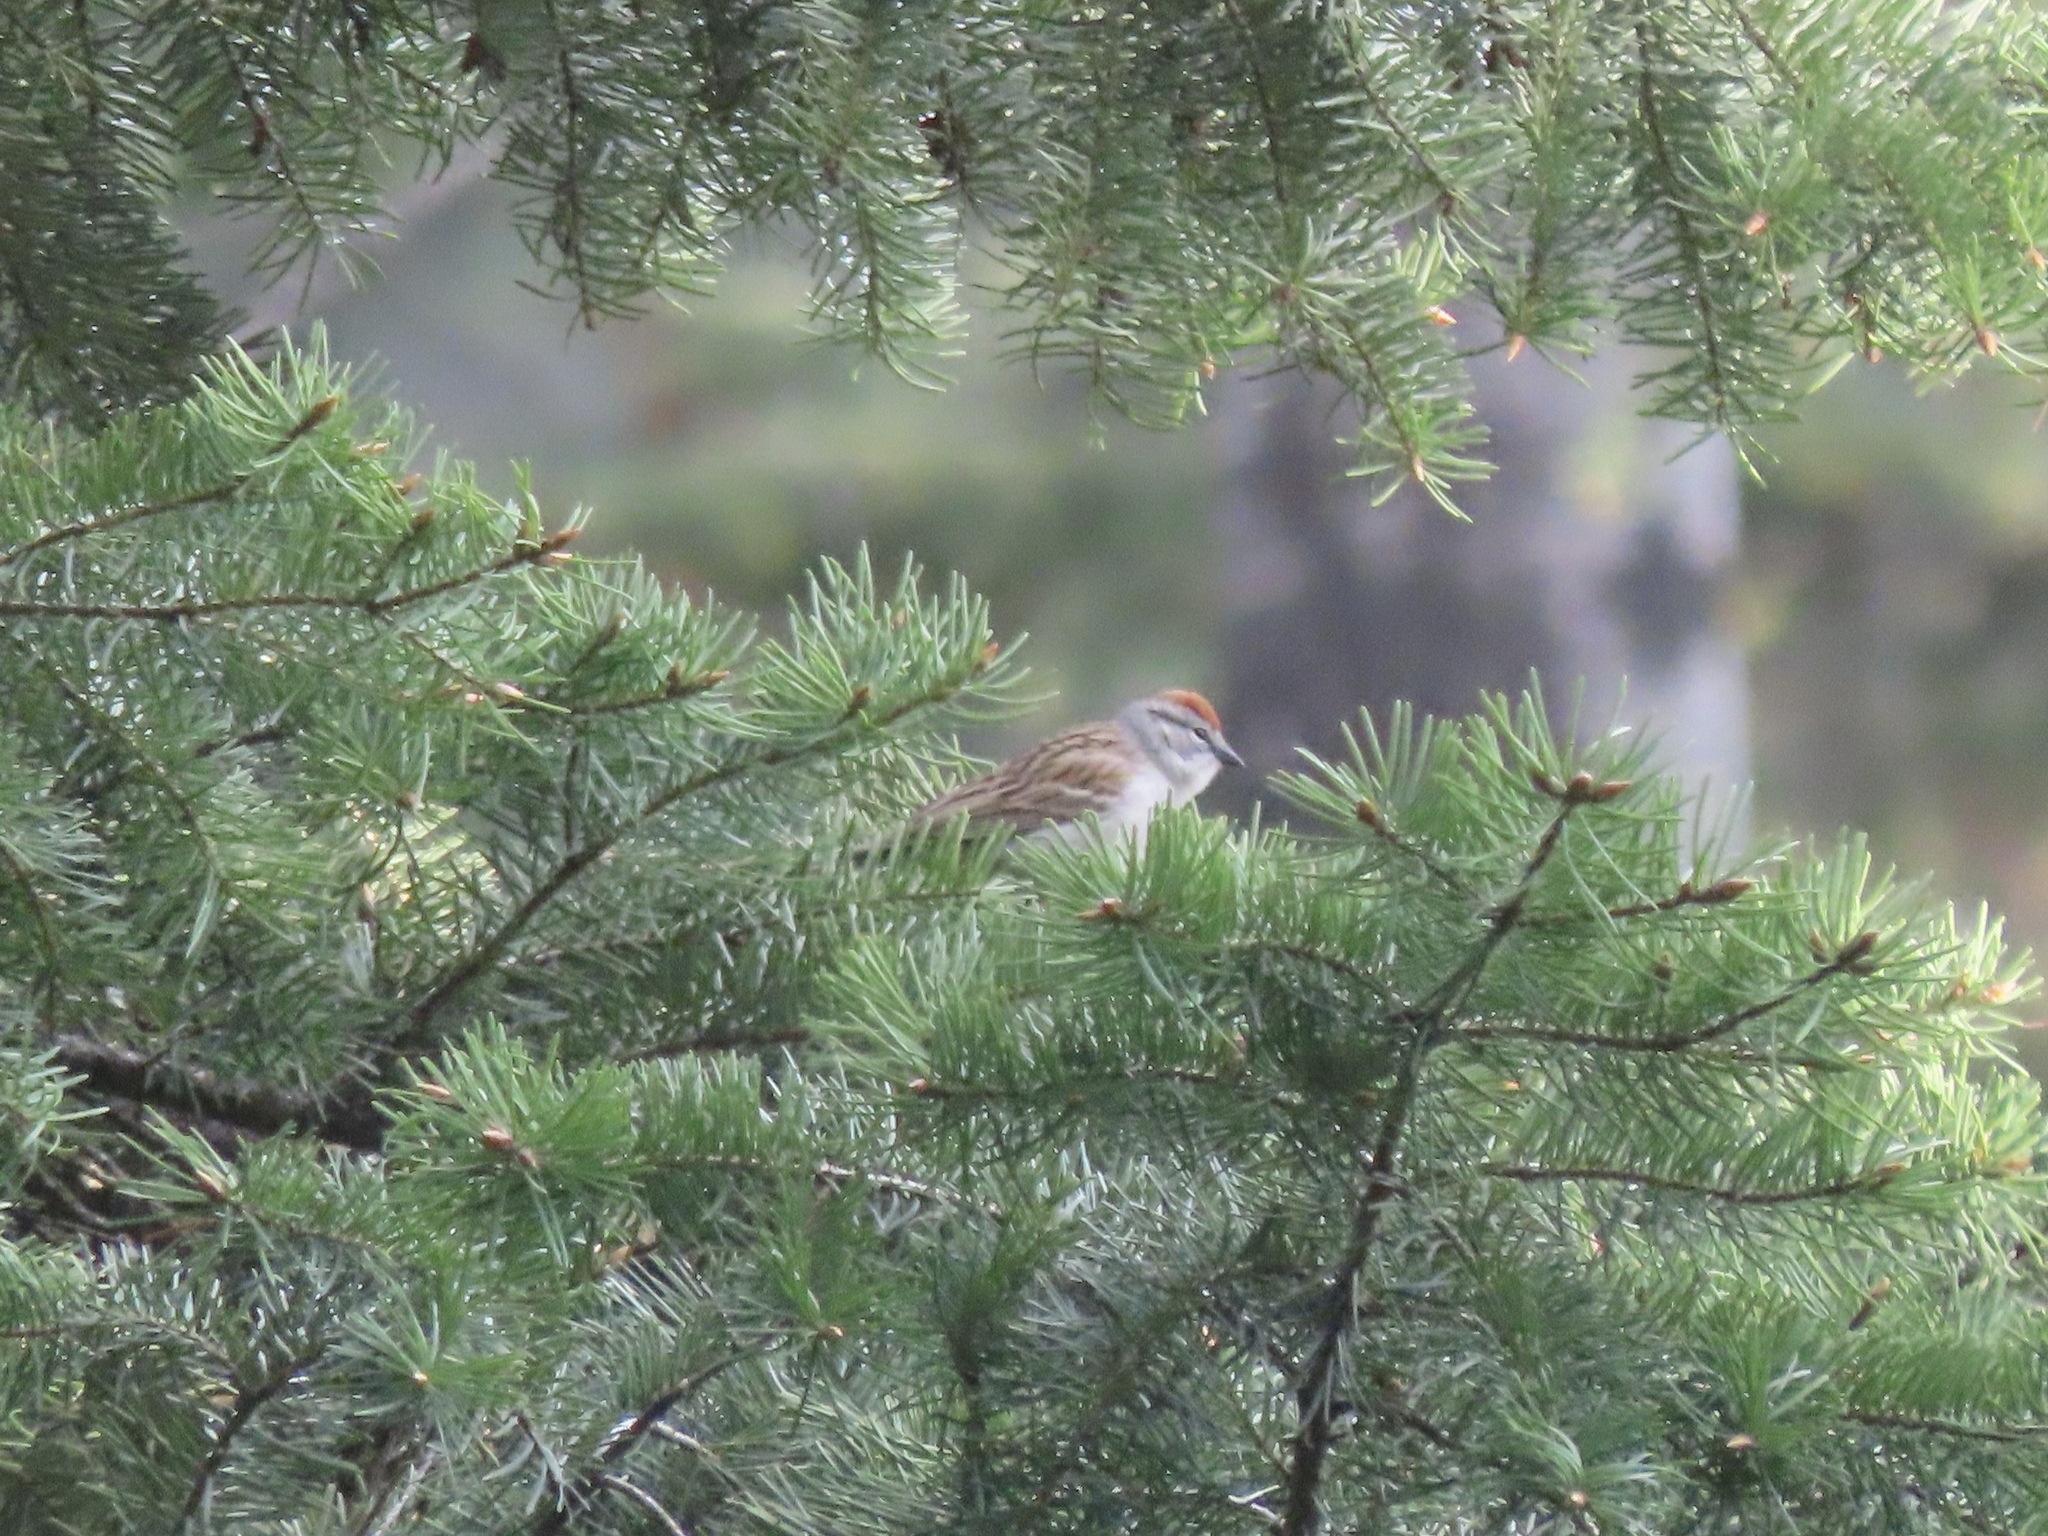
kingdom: Animalia
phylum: Chordata
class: Aves
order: Passeriformes
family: Passerellidae
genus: Spizella
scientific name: Spizella passerina
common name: Chipping sparrow
